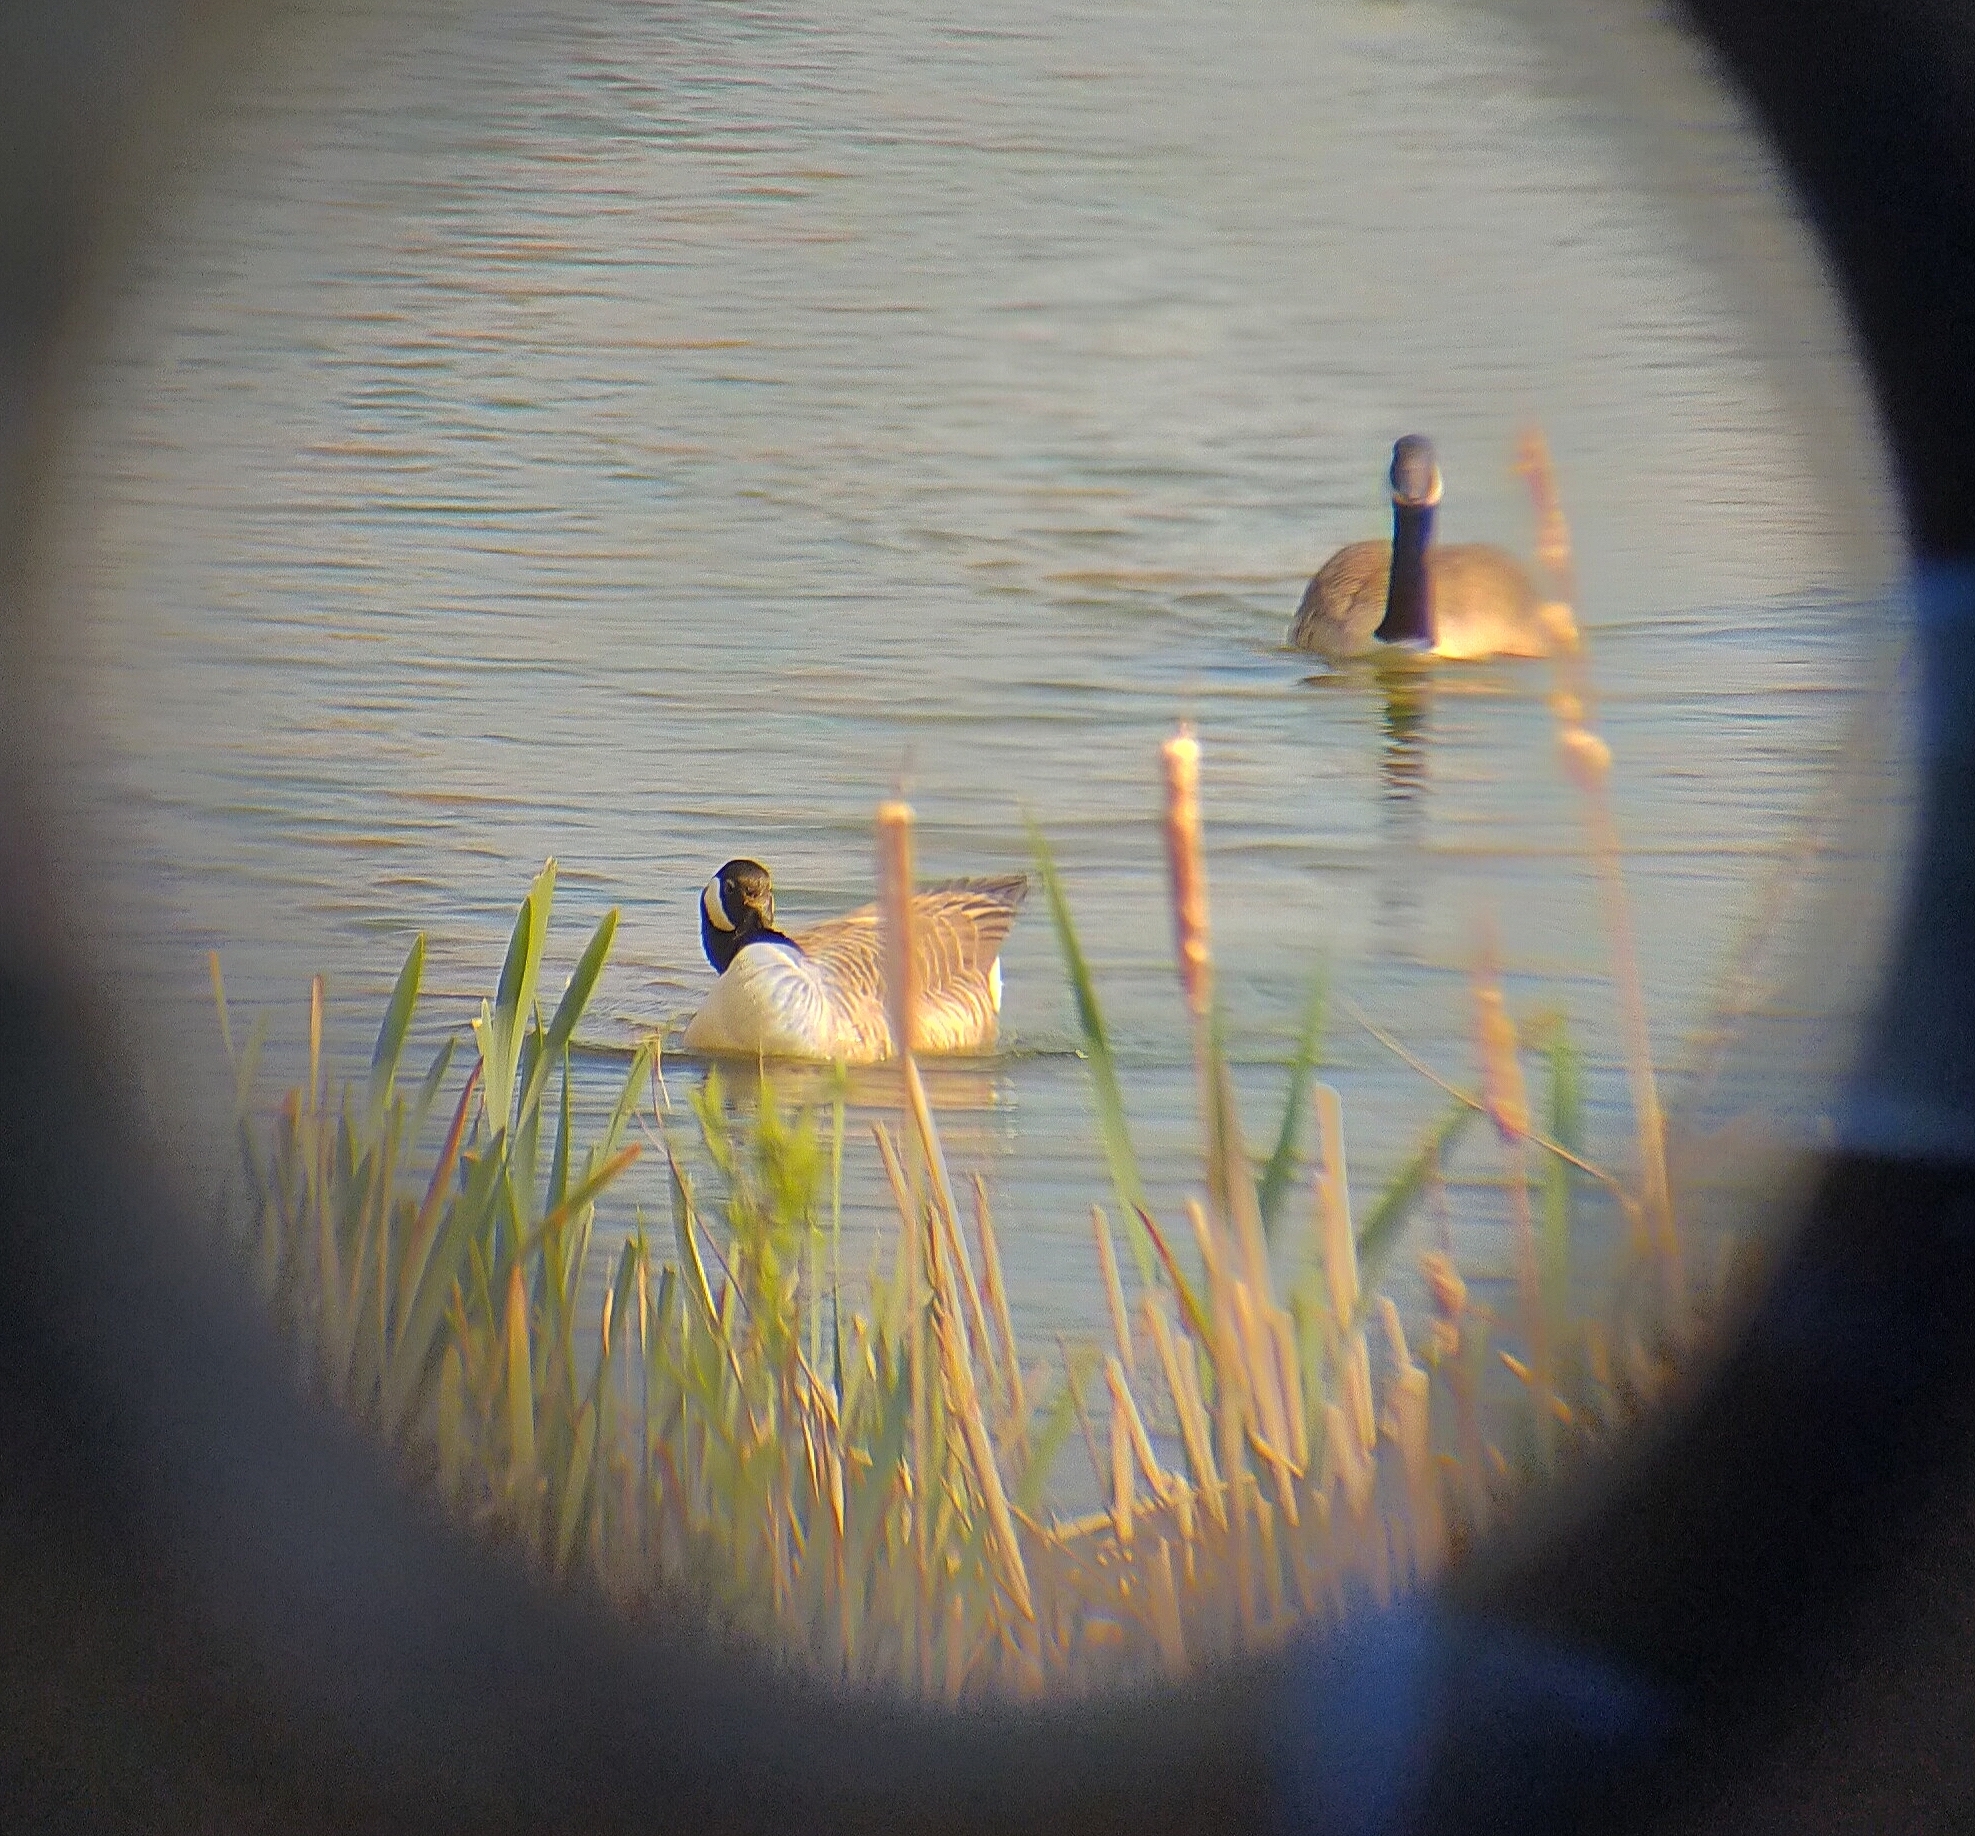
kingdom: Animalia
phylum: Chordata
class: Aves
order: Anseriformes
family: Anatidae
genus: Branta
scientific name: Branta canadensis
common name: Canada goose
